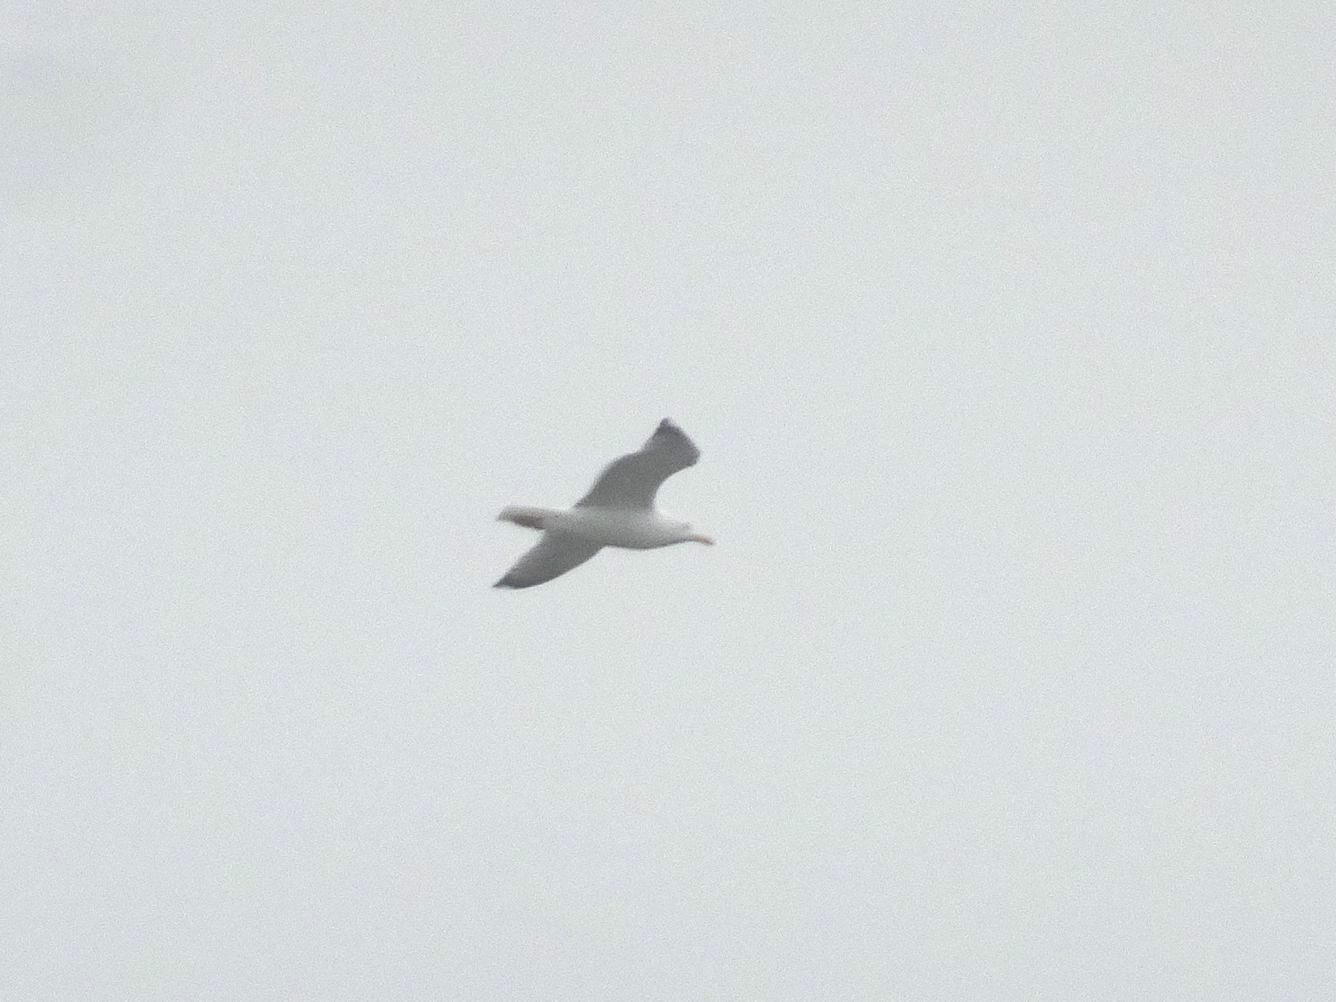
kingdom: Animalia
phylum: Chordata
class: Aves
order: Charadriiformes
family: Laridae
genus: Larus
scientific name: Larus michahellis
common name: Yellow-legged gull
